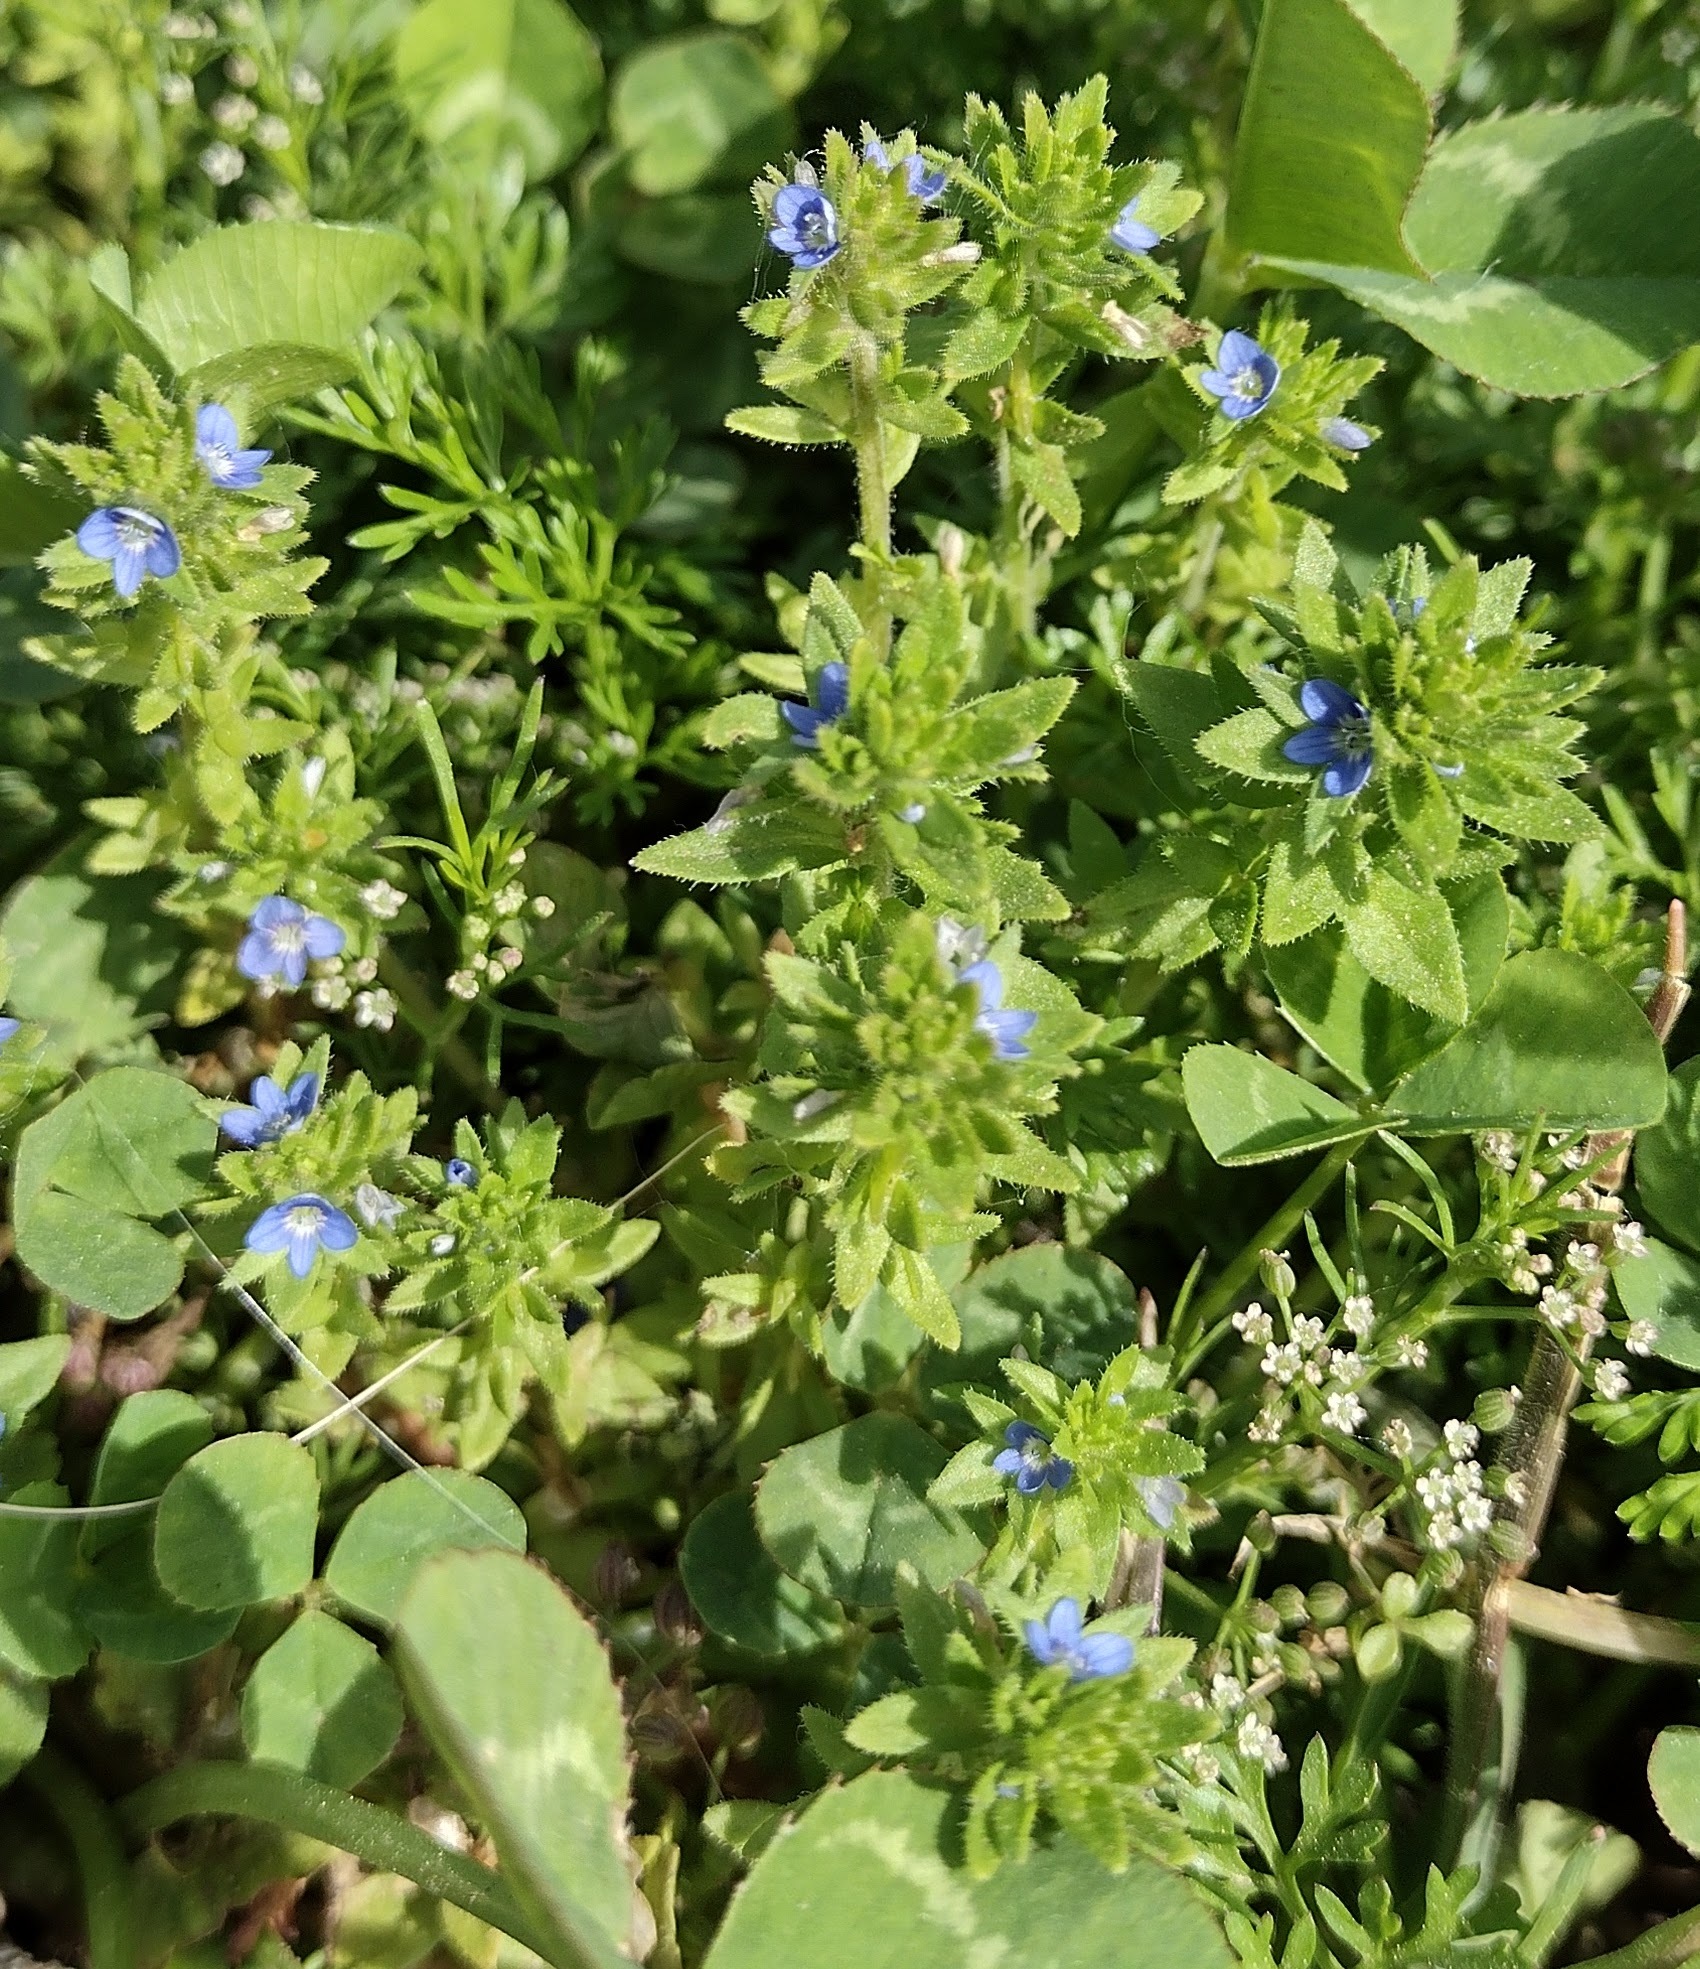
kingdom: Plantae
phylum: Tracheophyta
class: Magnoliopsida
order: Lamiales
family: Plantaginaceae
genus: Veronica
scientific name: Veronica arvensis
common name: Corn speedwell
